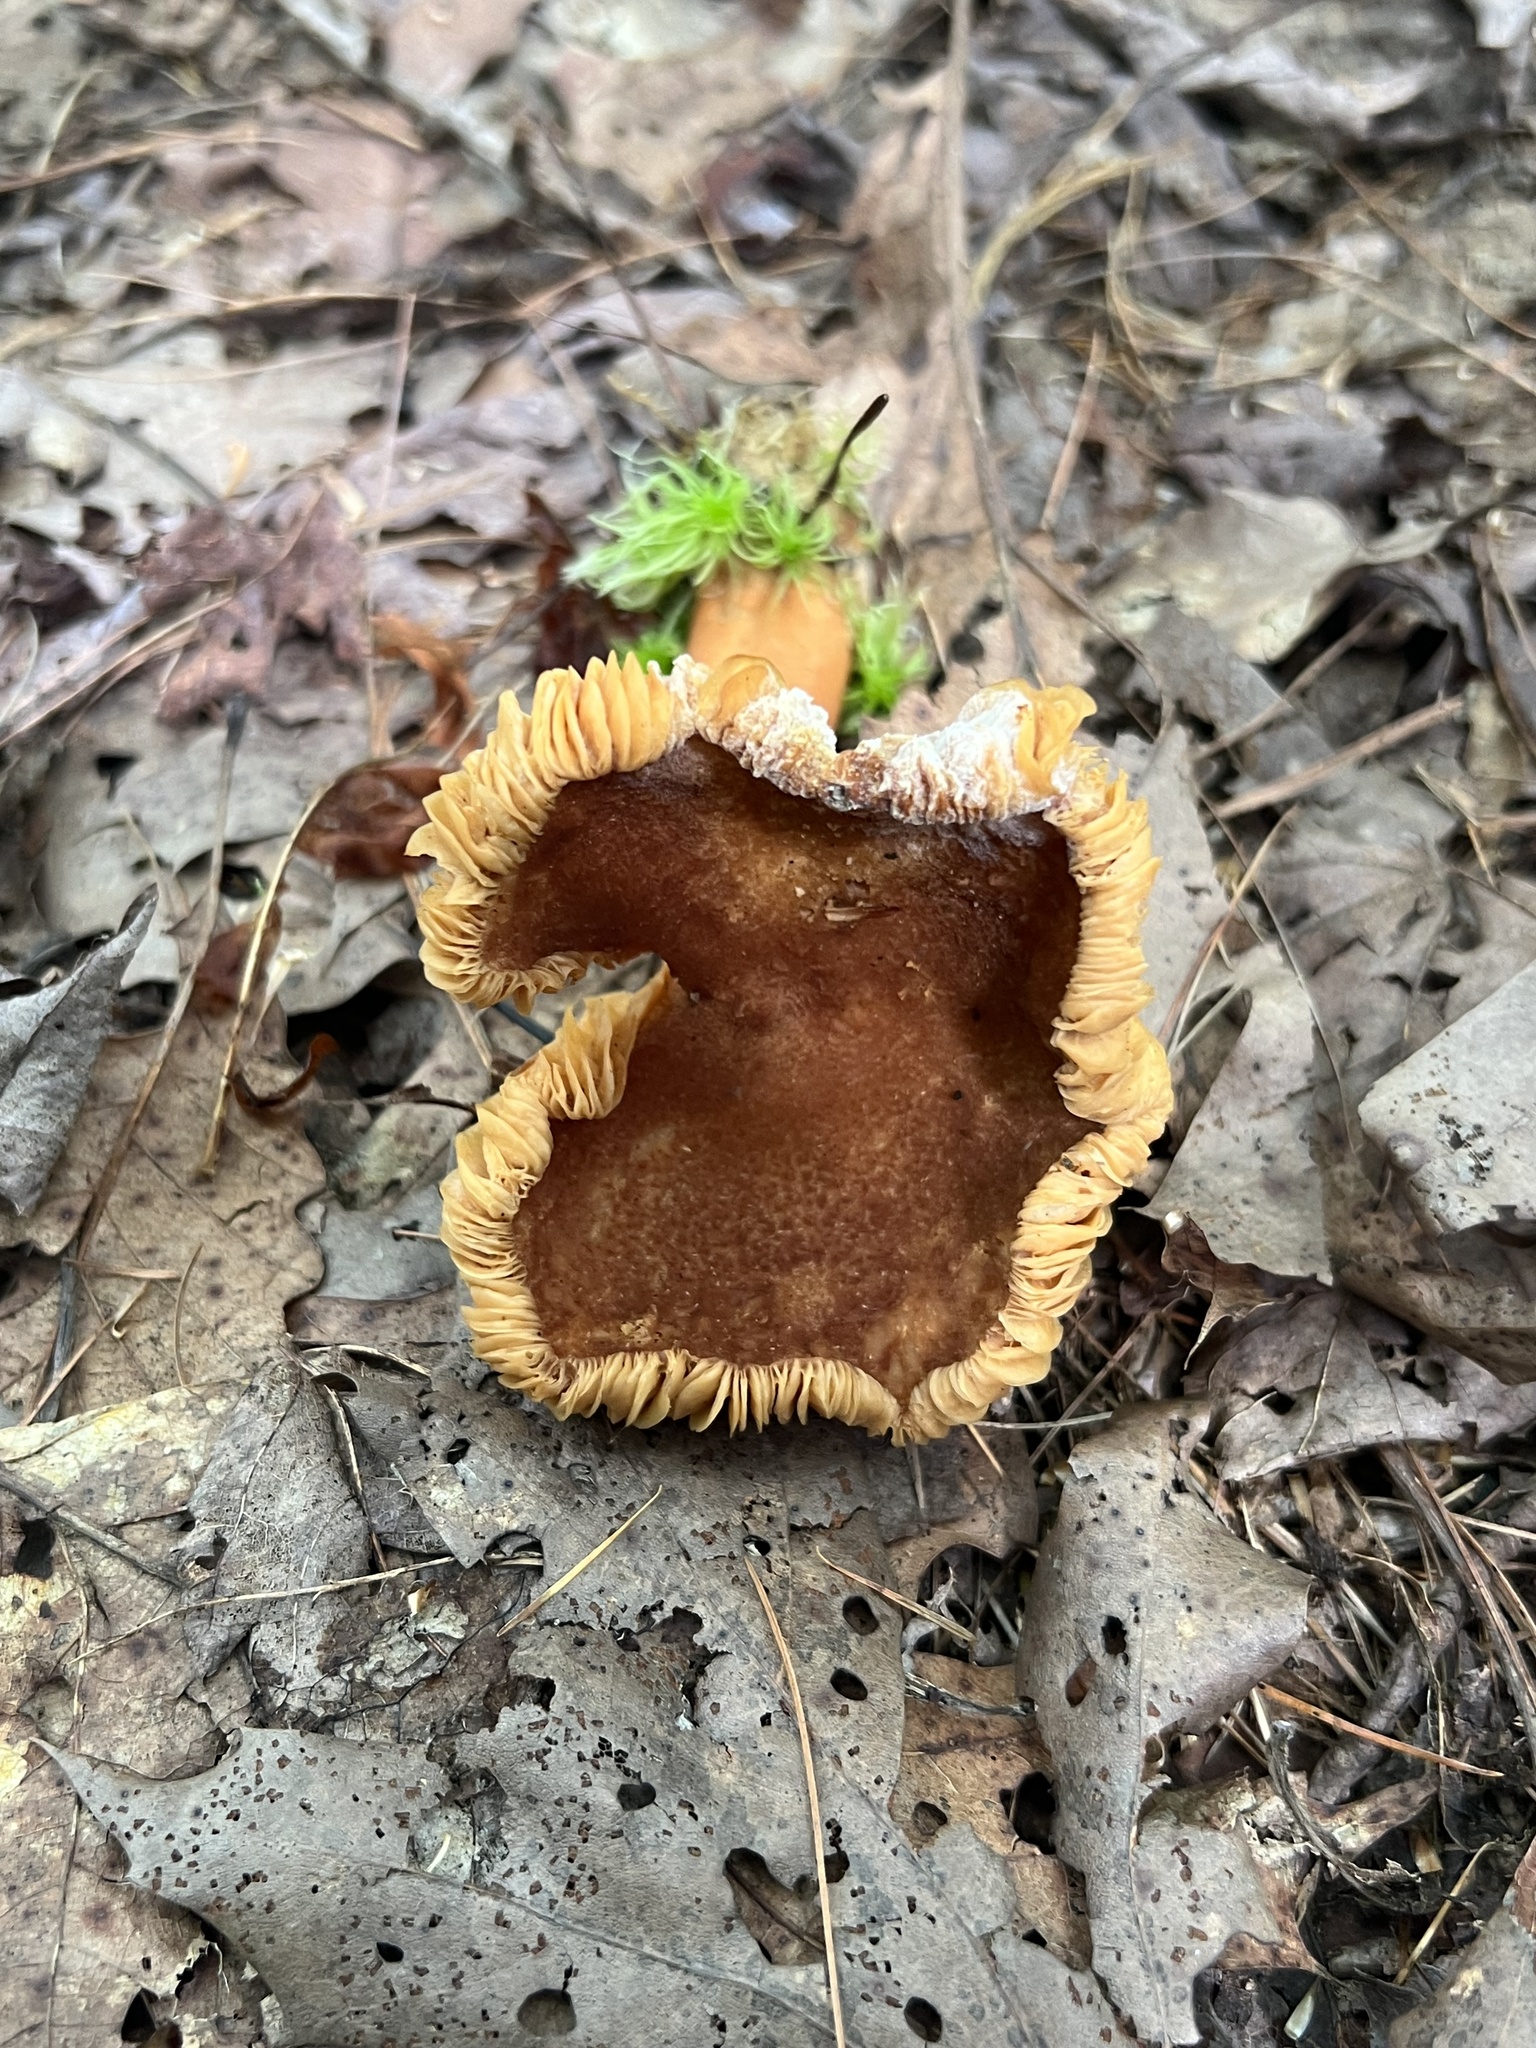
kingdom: Fungi
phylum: Basidiomycota
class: Agaricomycetes
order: Russulales
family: Russulaceae
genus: Lactarius
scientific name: Lactarius helvus
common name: Fenugreek milkcap
